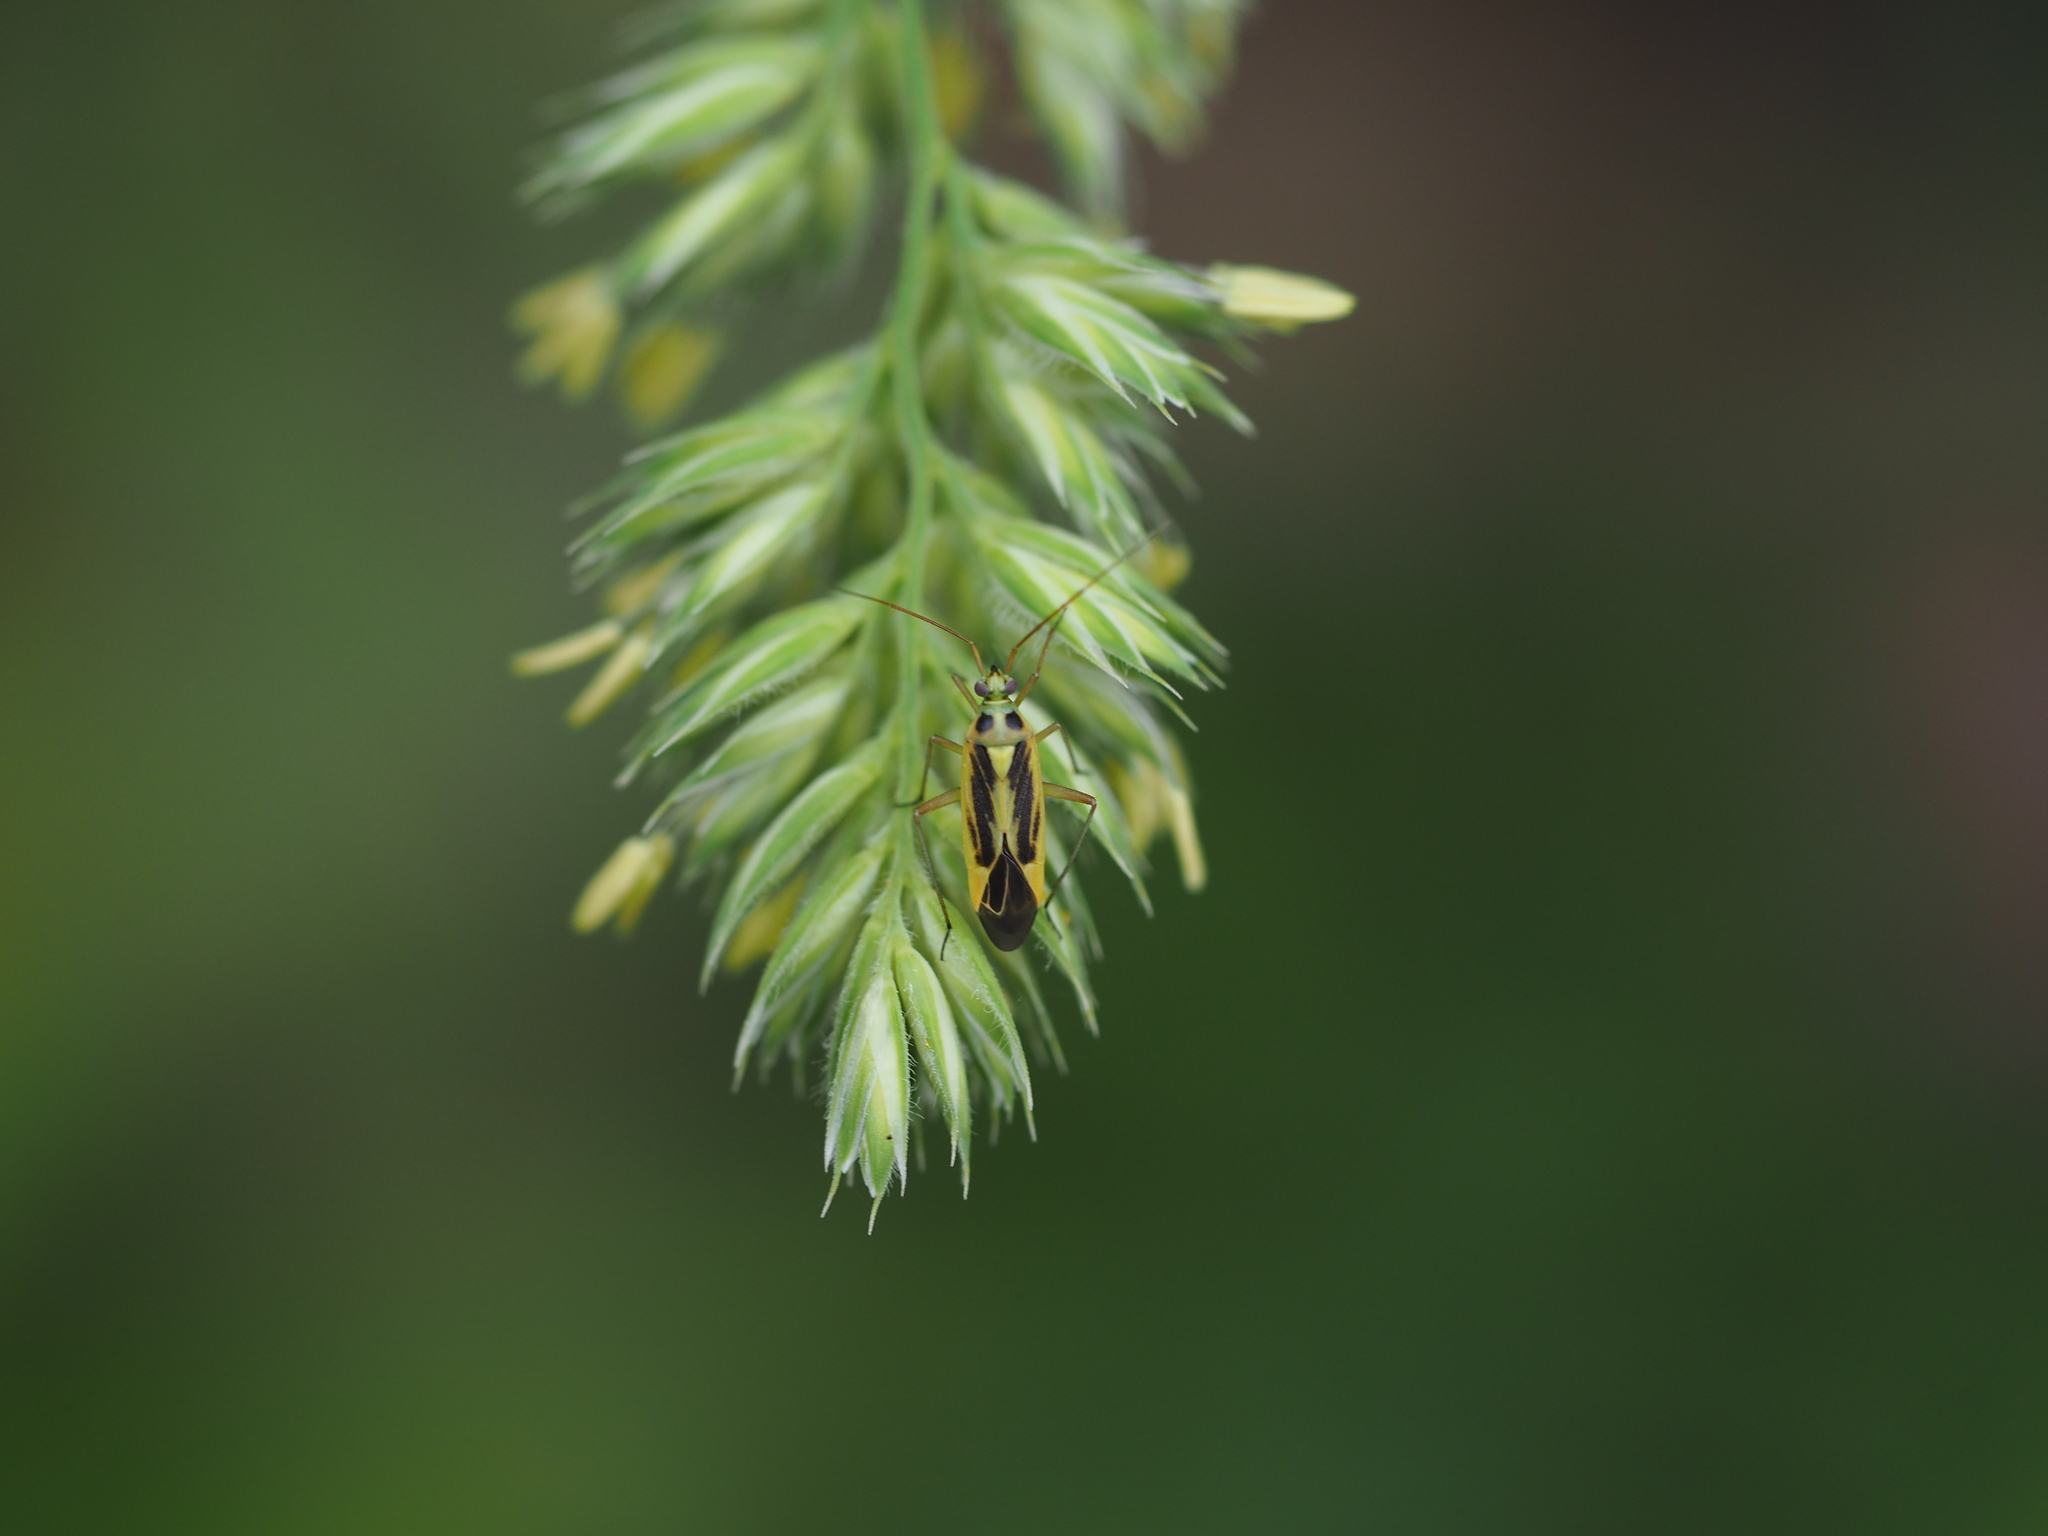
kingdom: Animalia
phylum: Arthropoda
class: Insecta
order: Hemiptera
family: Miridae
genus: Stenotus
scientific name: Stenotus binotatus
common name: Plant bug
